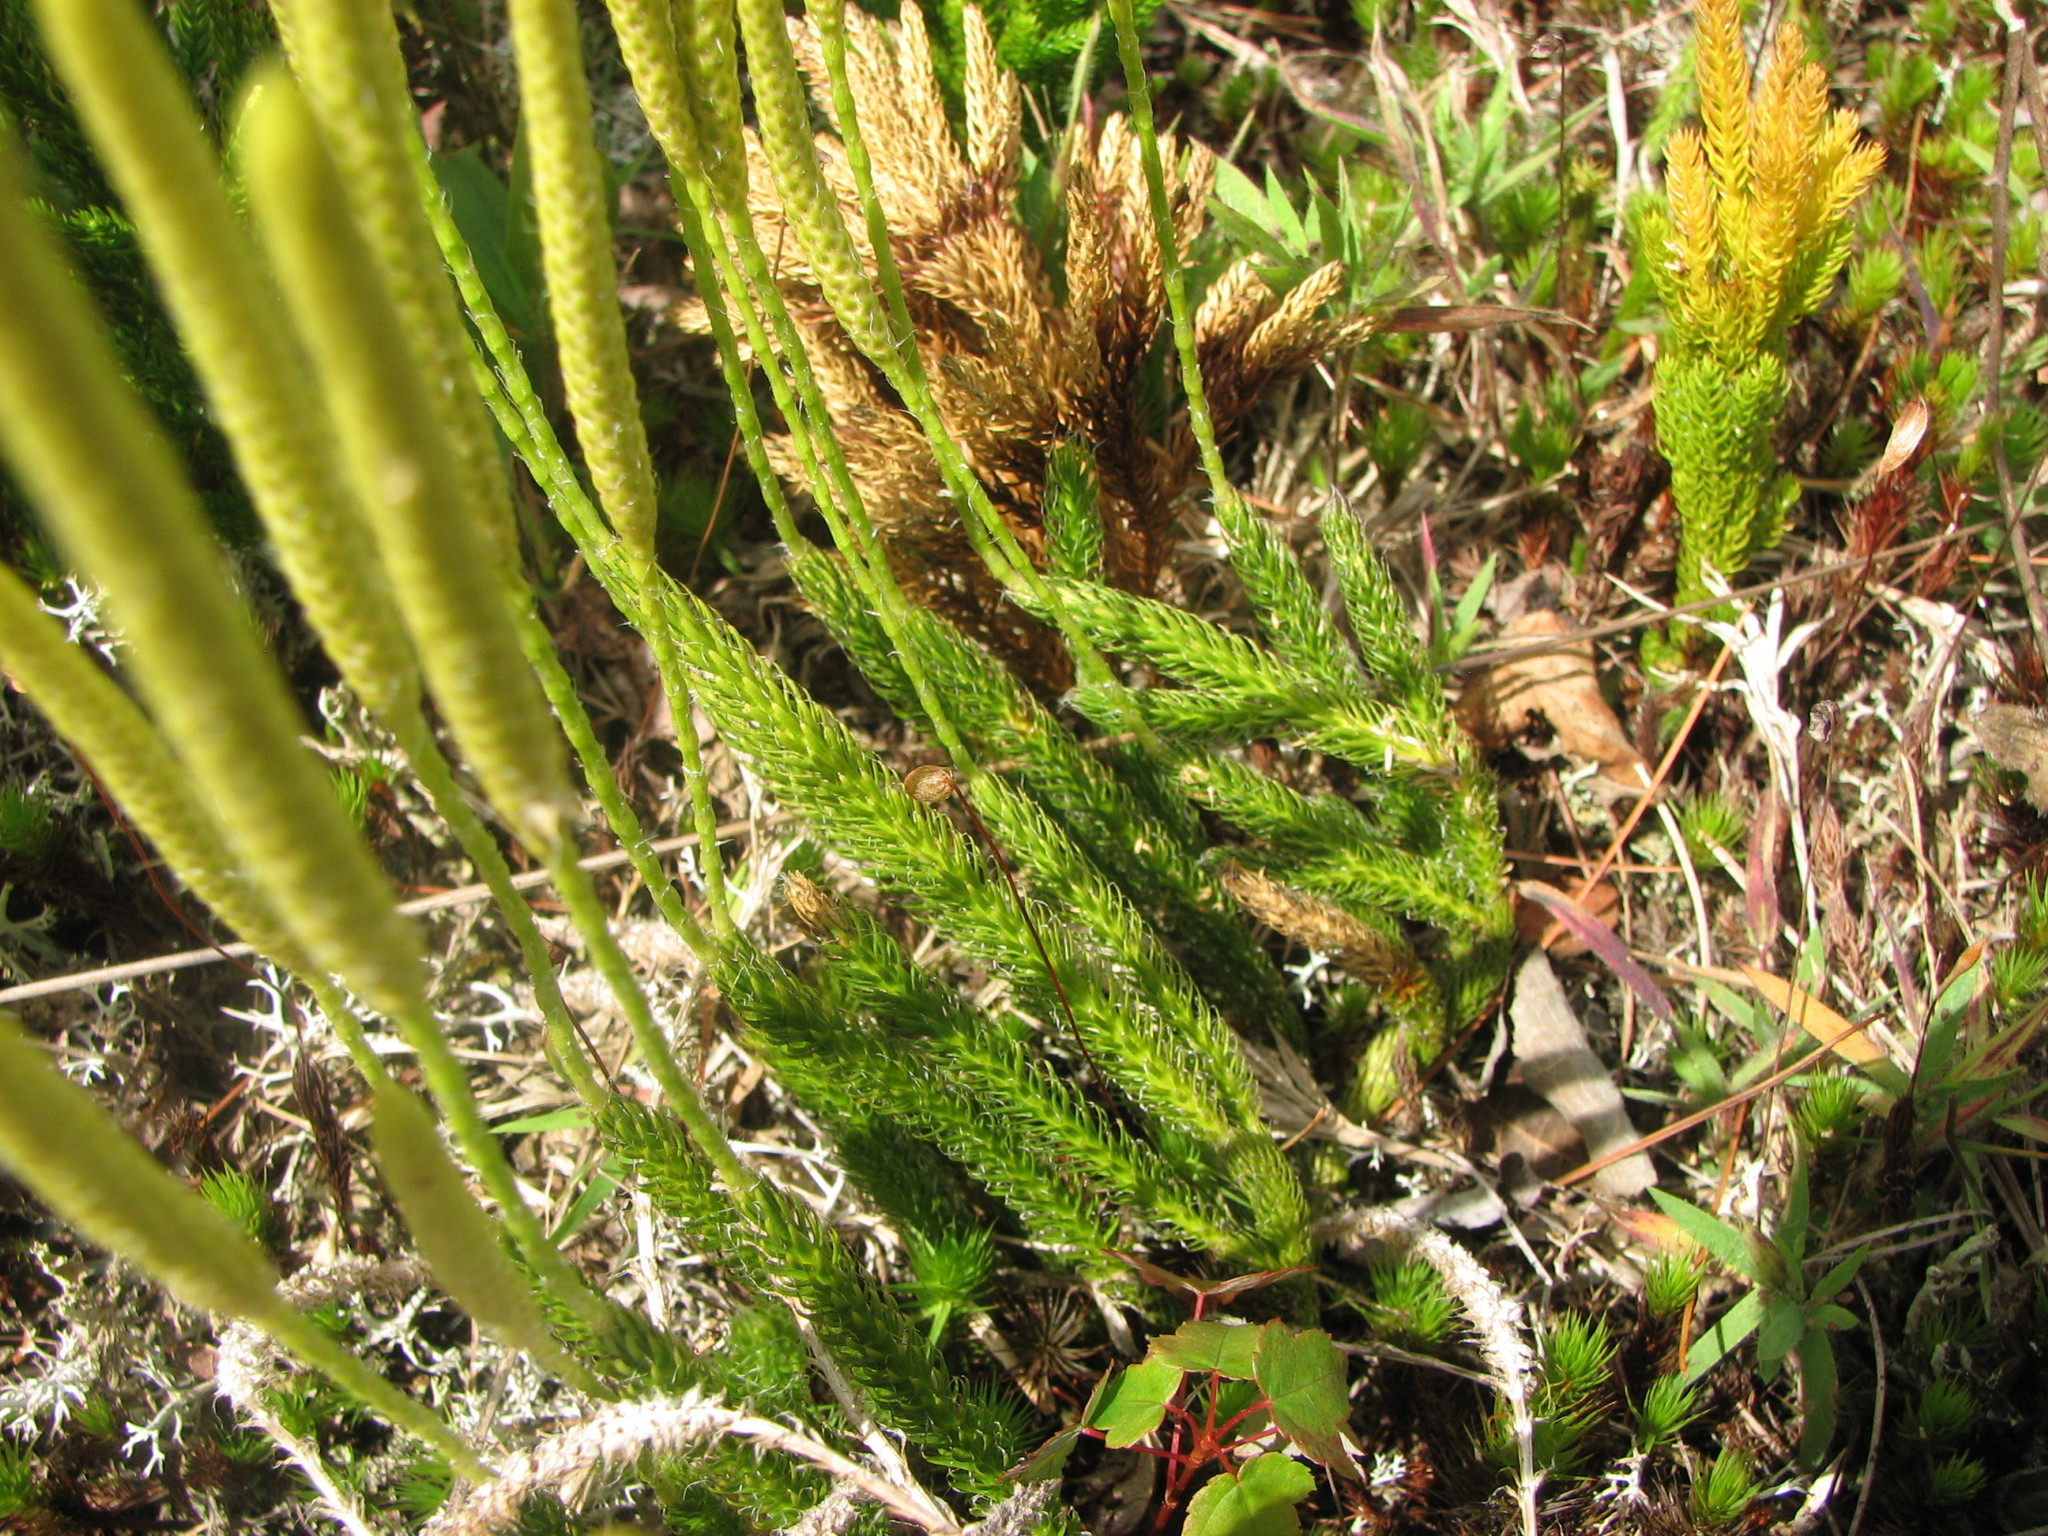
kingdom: Plantae
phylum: Tracheophyta
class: Lycopodiopsida
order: Lycopodiales
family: Lycopodiaceae
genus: Lycopodium
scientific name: Lycopodium lagopus
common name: One-cone clubmoss
